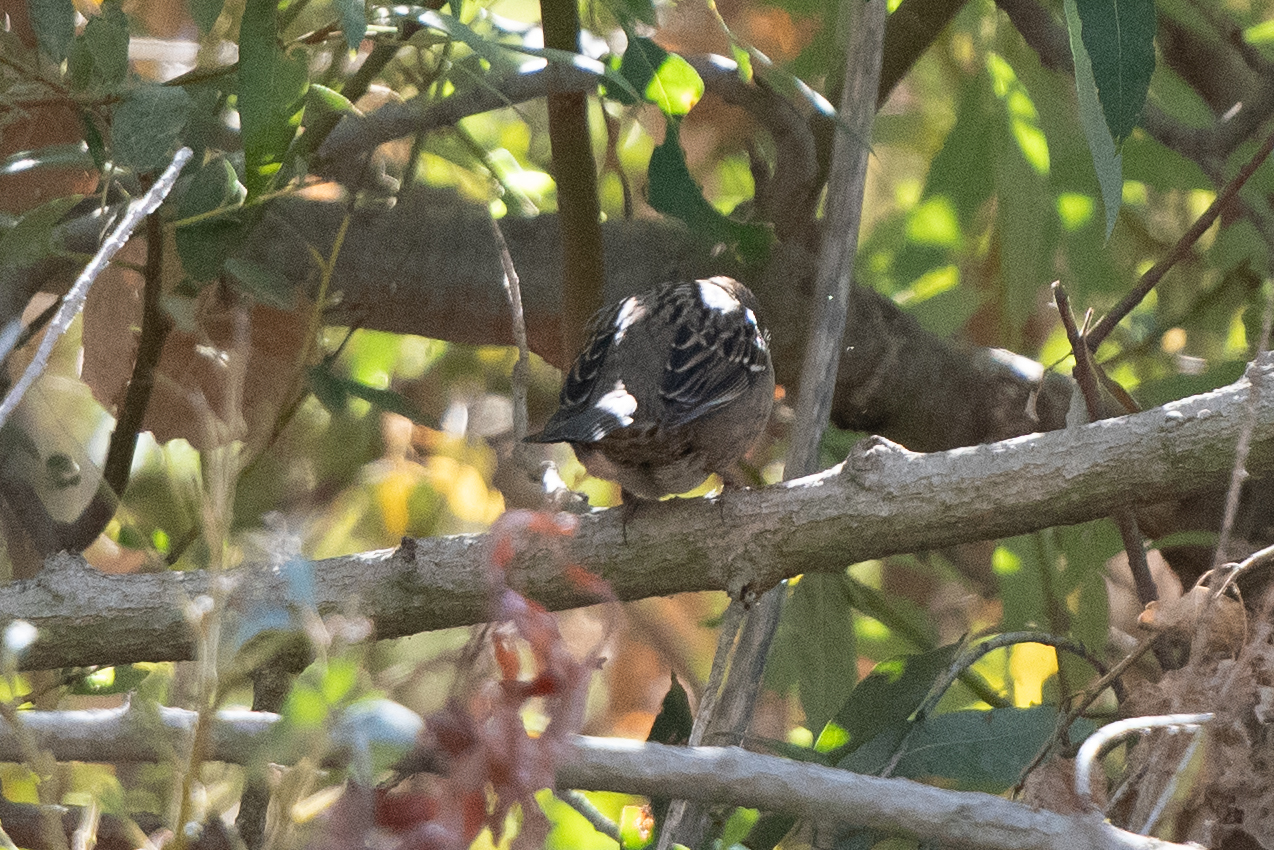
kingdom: Animalia
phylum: Chordata
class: Aves
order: Passeriformes
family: Passerellidae
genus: Zonotrichia
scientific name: Zonotrichia
